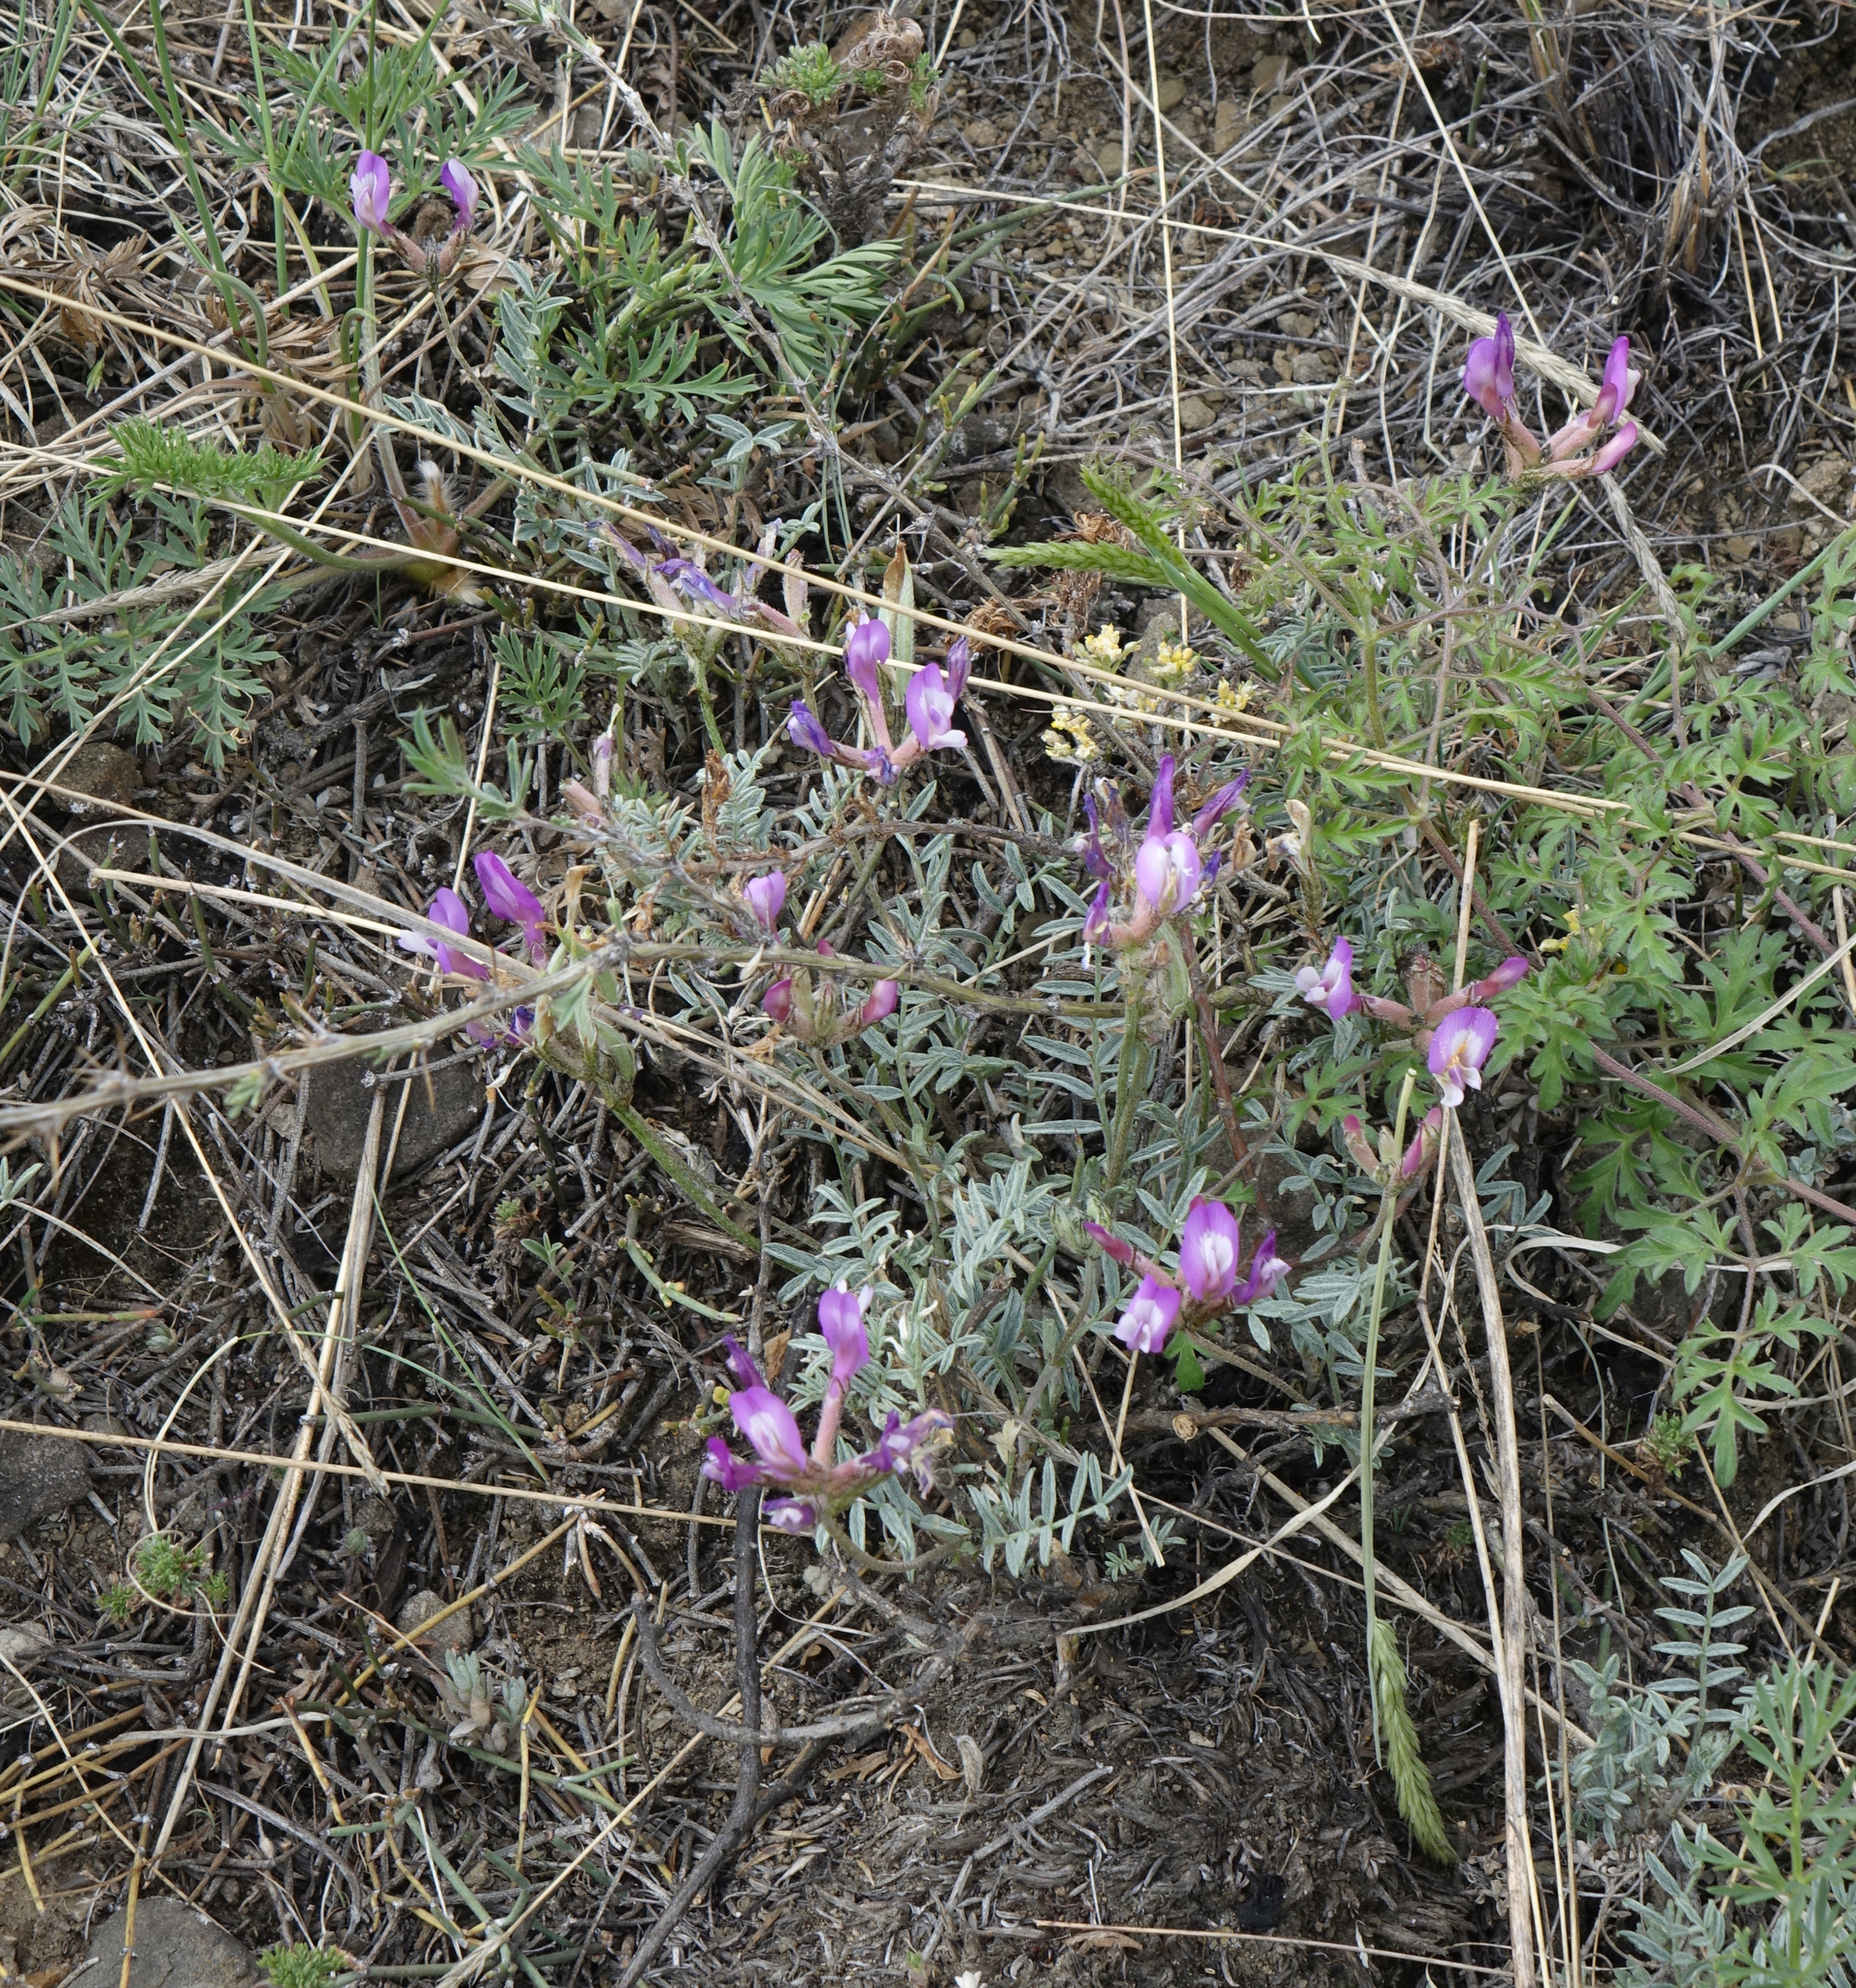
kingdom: Plantae
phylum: Tracheophyta
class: Magnoliopsida
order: Fabales
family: Fabaceae
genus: Astragalus
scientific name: Astragalus stenoceras
